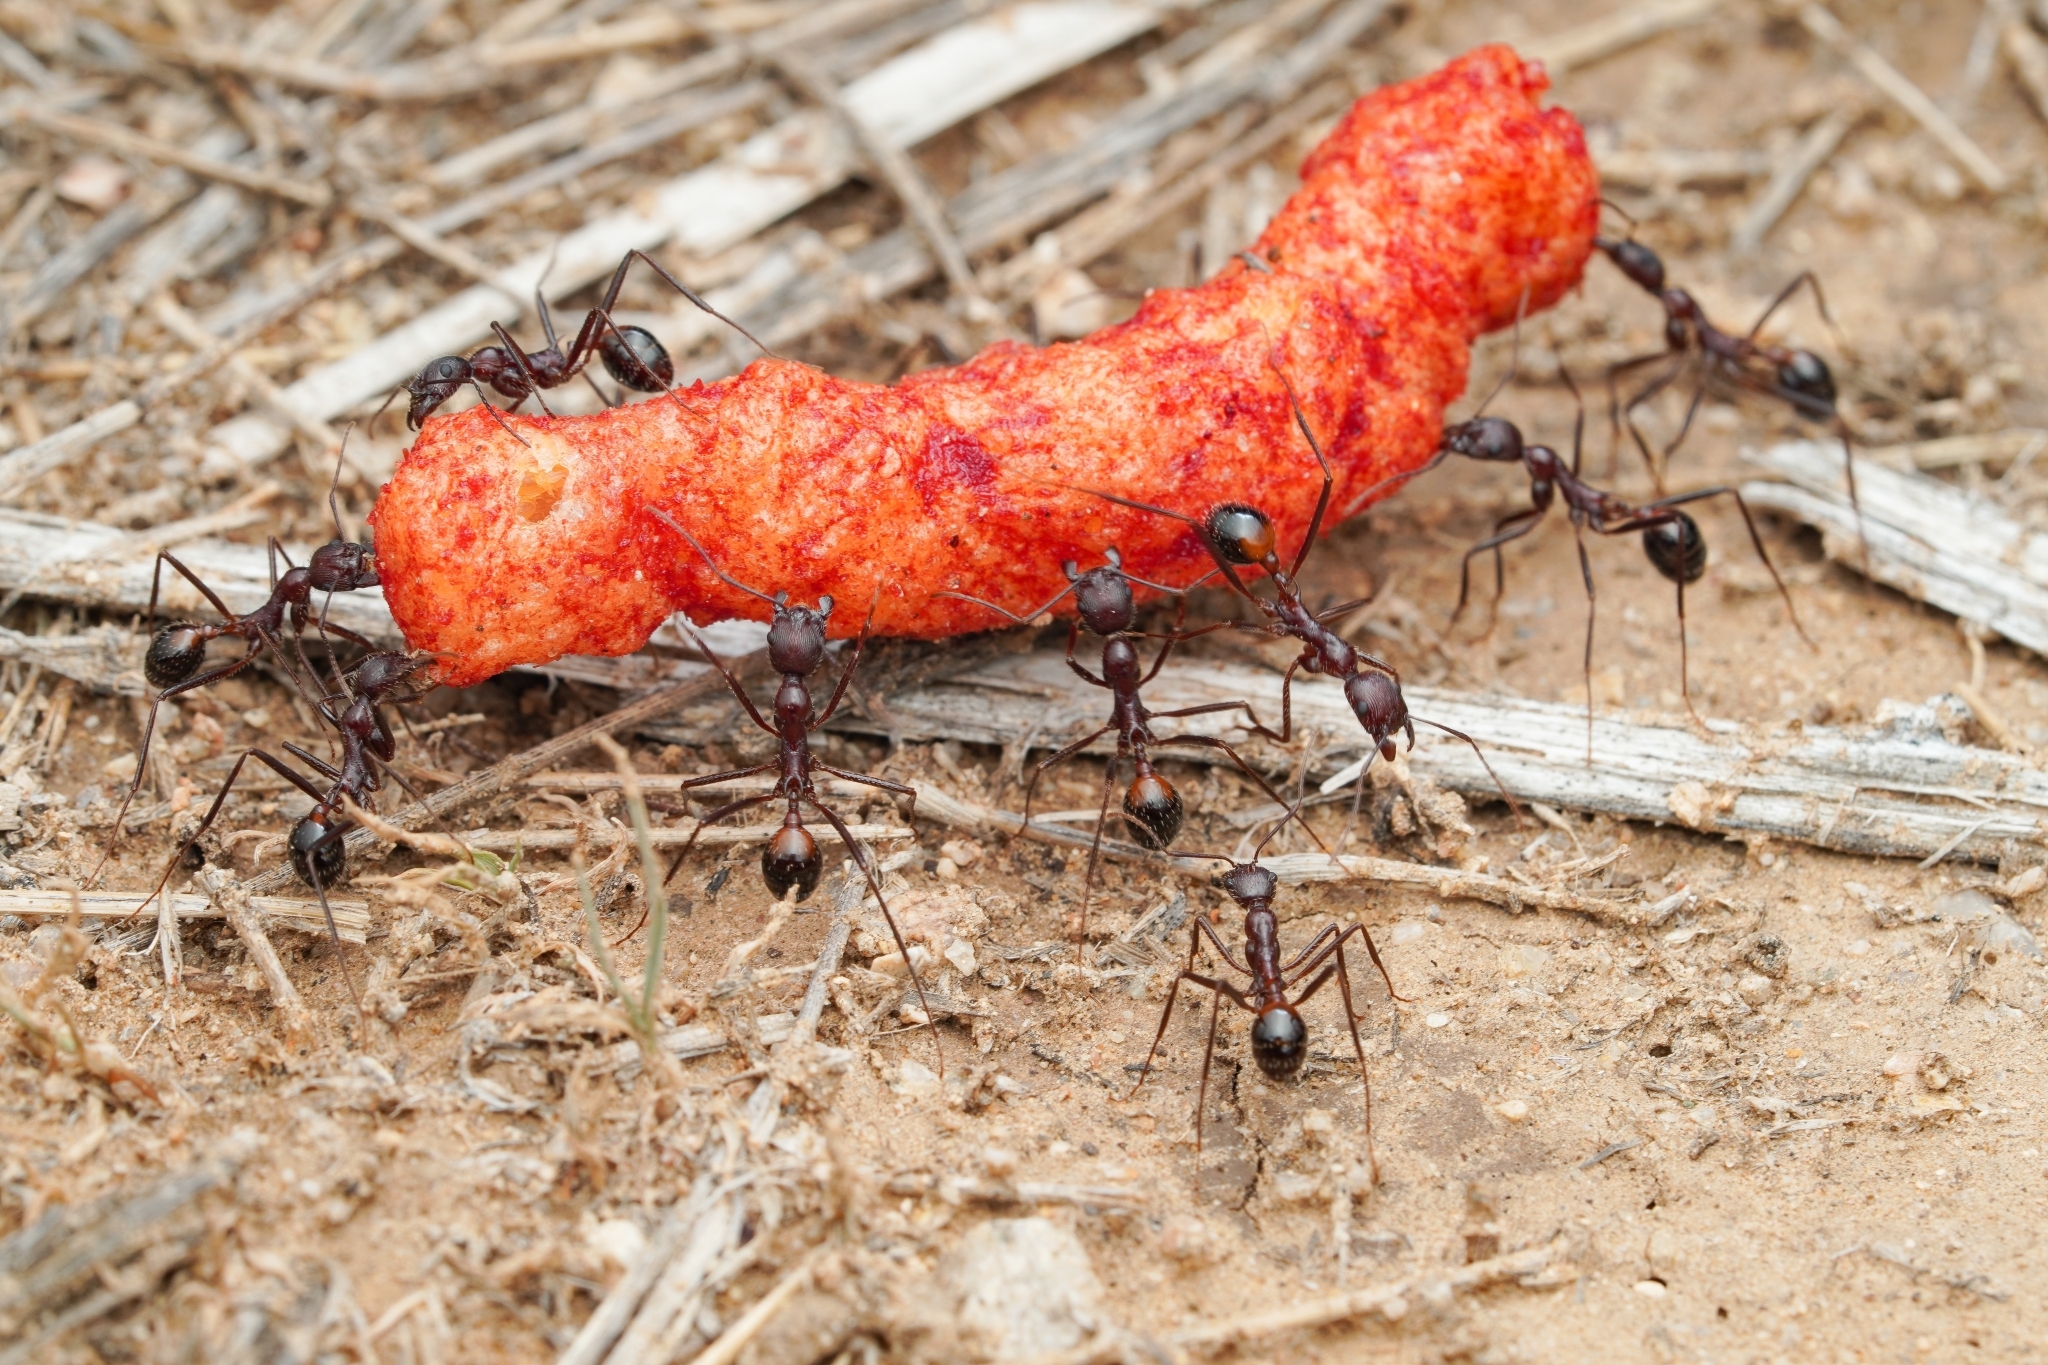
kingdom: Animalia
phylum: Arthropoda
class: Insecta
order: Hymenoptera
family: Formicidae
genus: Novomessor
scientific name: Novomessor cockerelli
